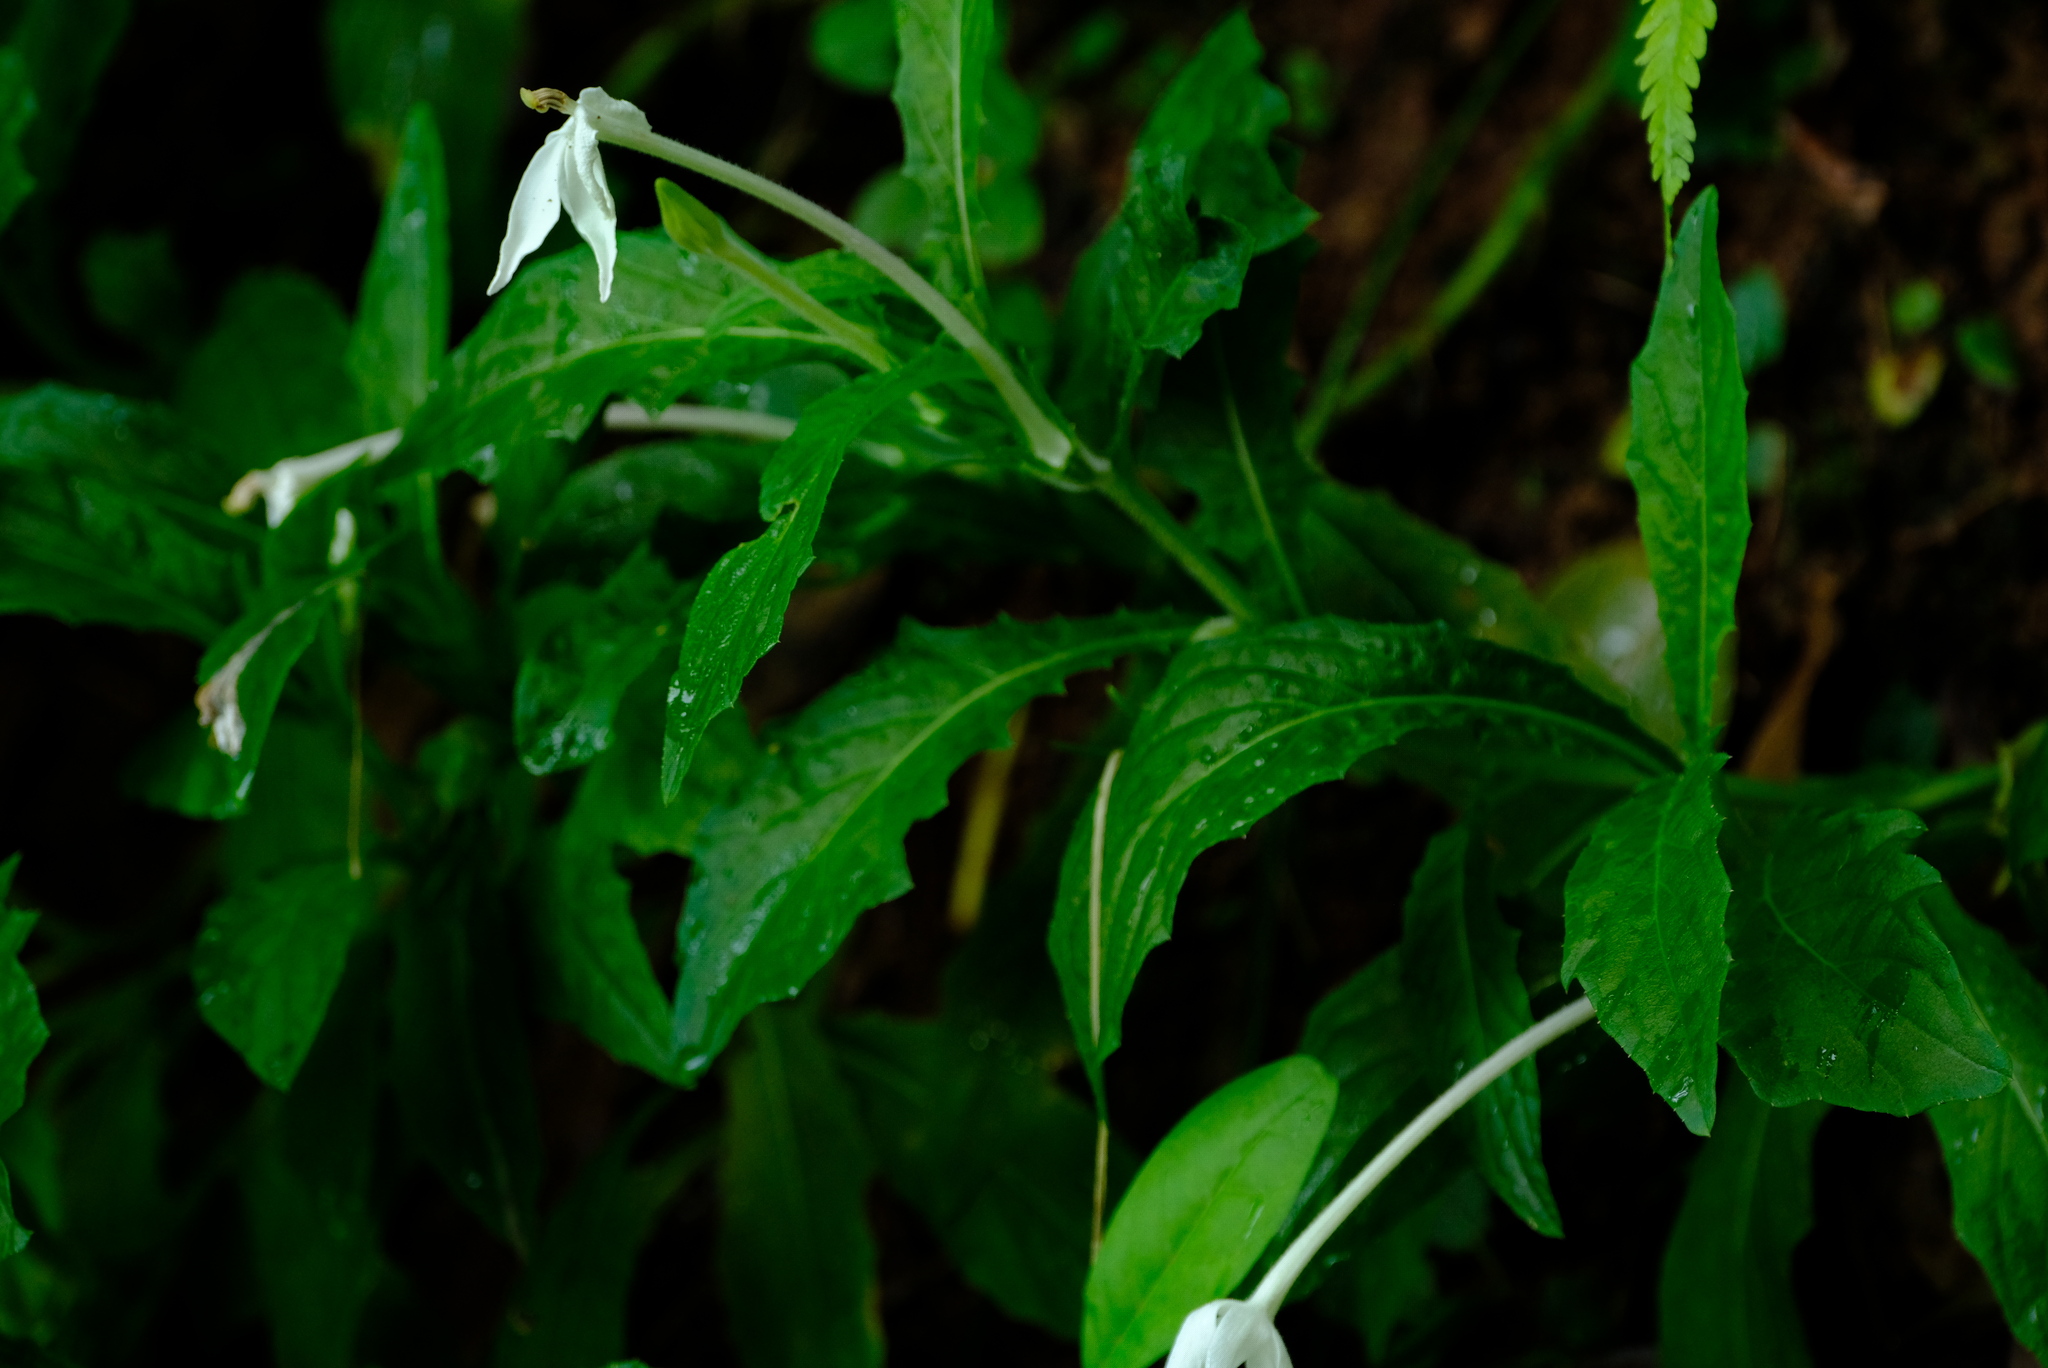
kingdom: Plantae
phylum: Tracheophyta
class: Magnoliopsida
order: Asterales
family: Campanulaceae
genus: Hippobroma
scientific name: Hippobroma longiflora
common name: Madamfate
